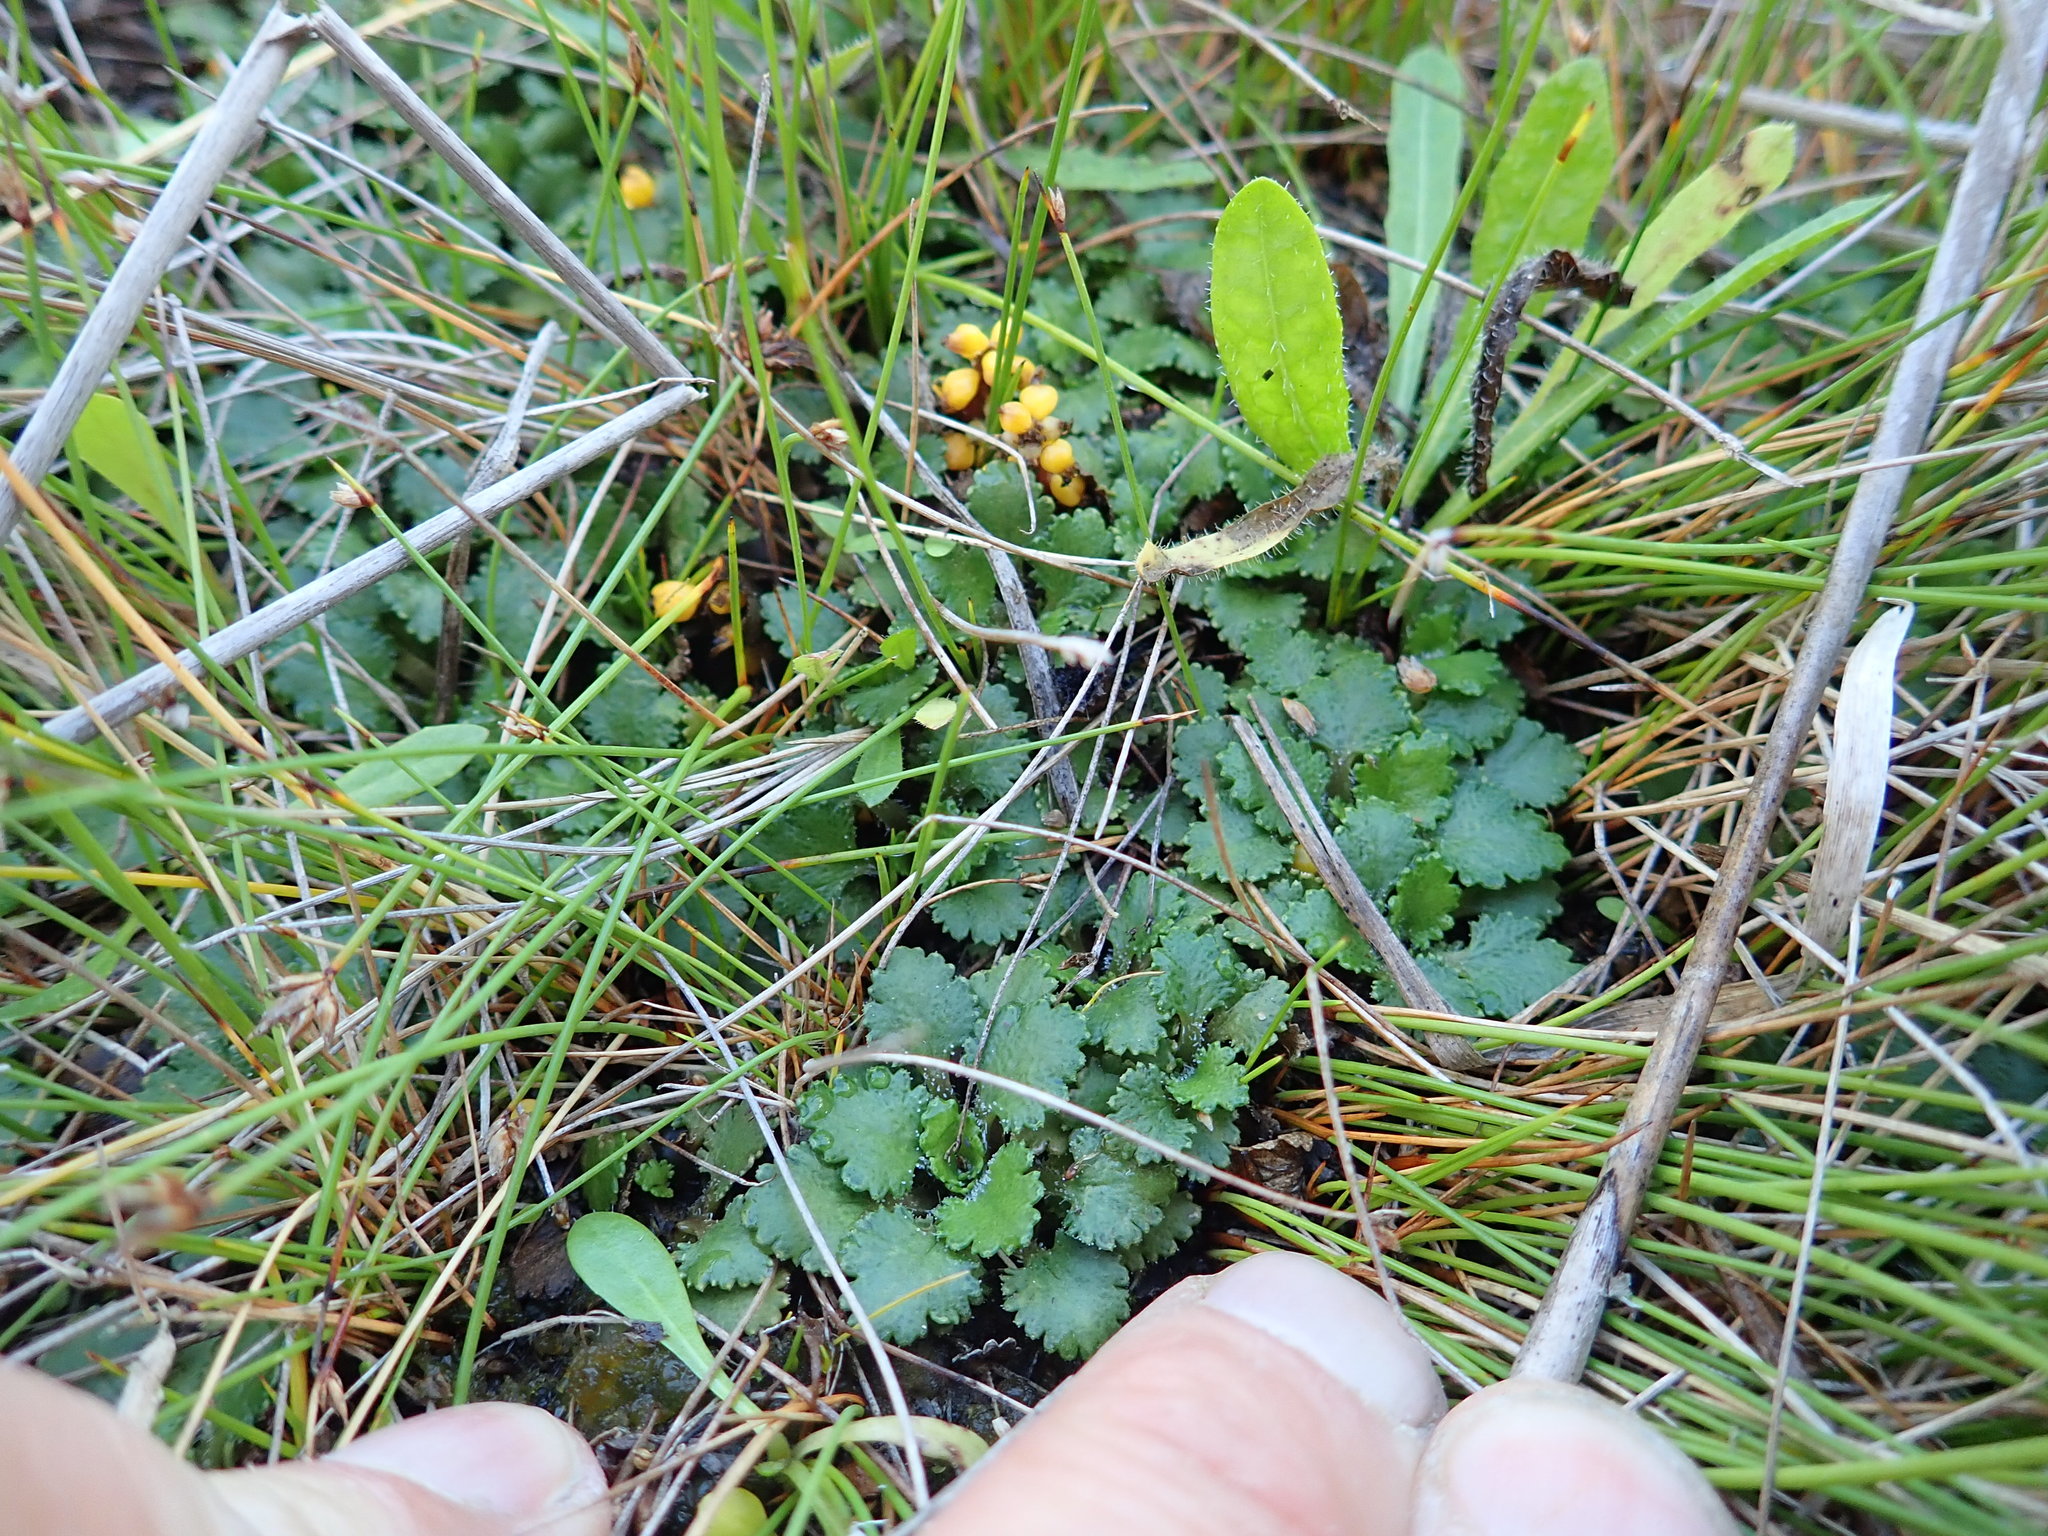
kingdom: Plantae
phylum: Tracheophyta
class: Magnoliopsida
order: Gunnerales
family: Gunneraceae
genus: Gunnera
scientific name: Gunnera dentata
